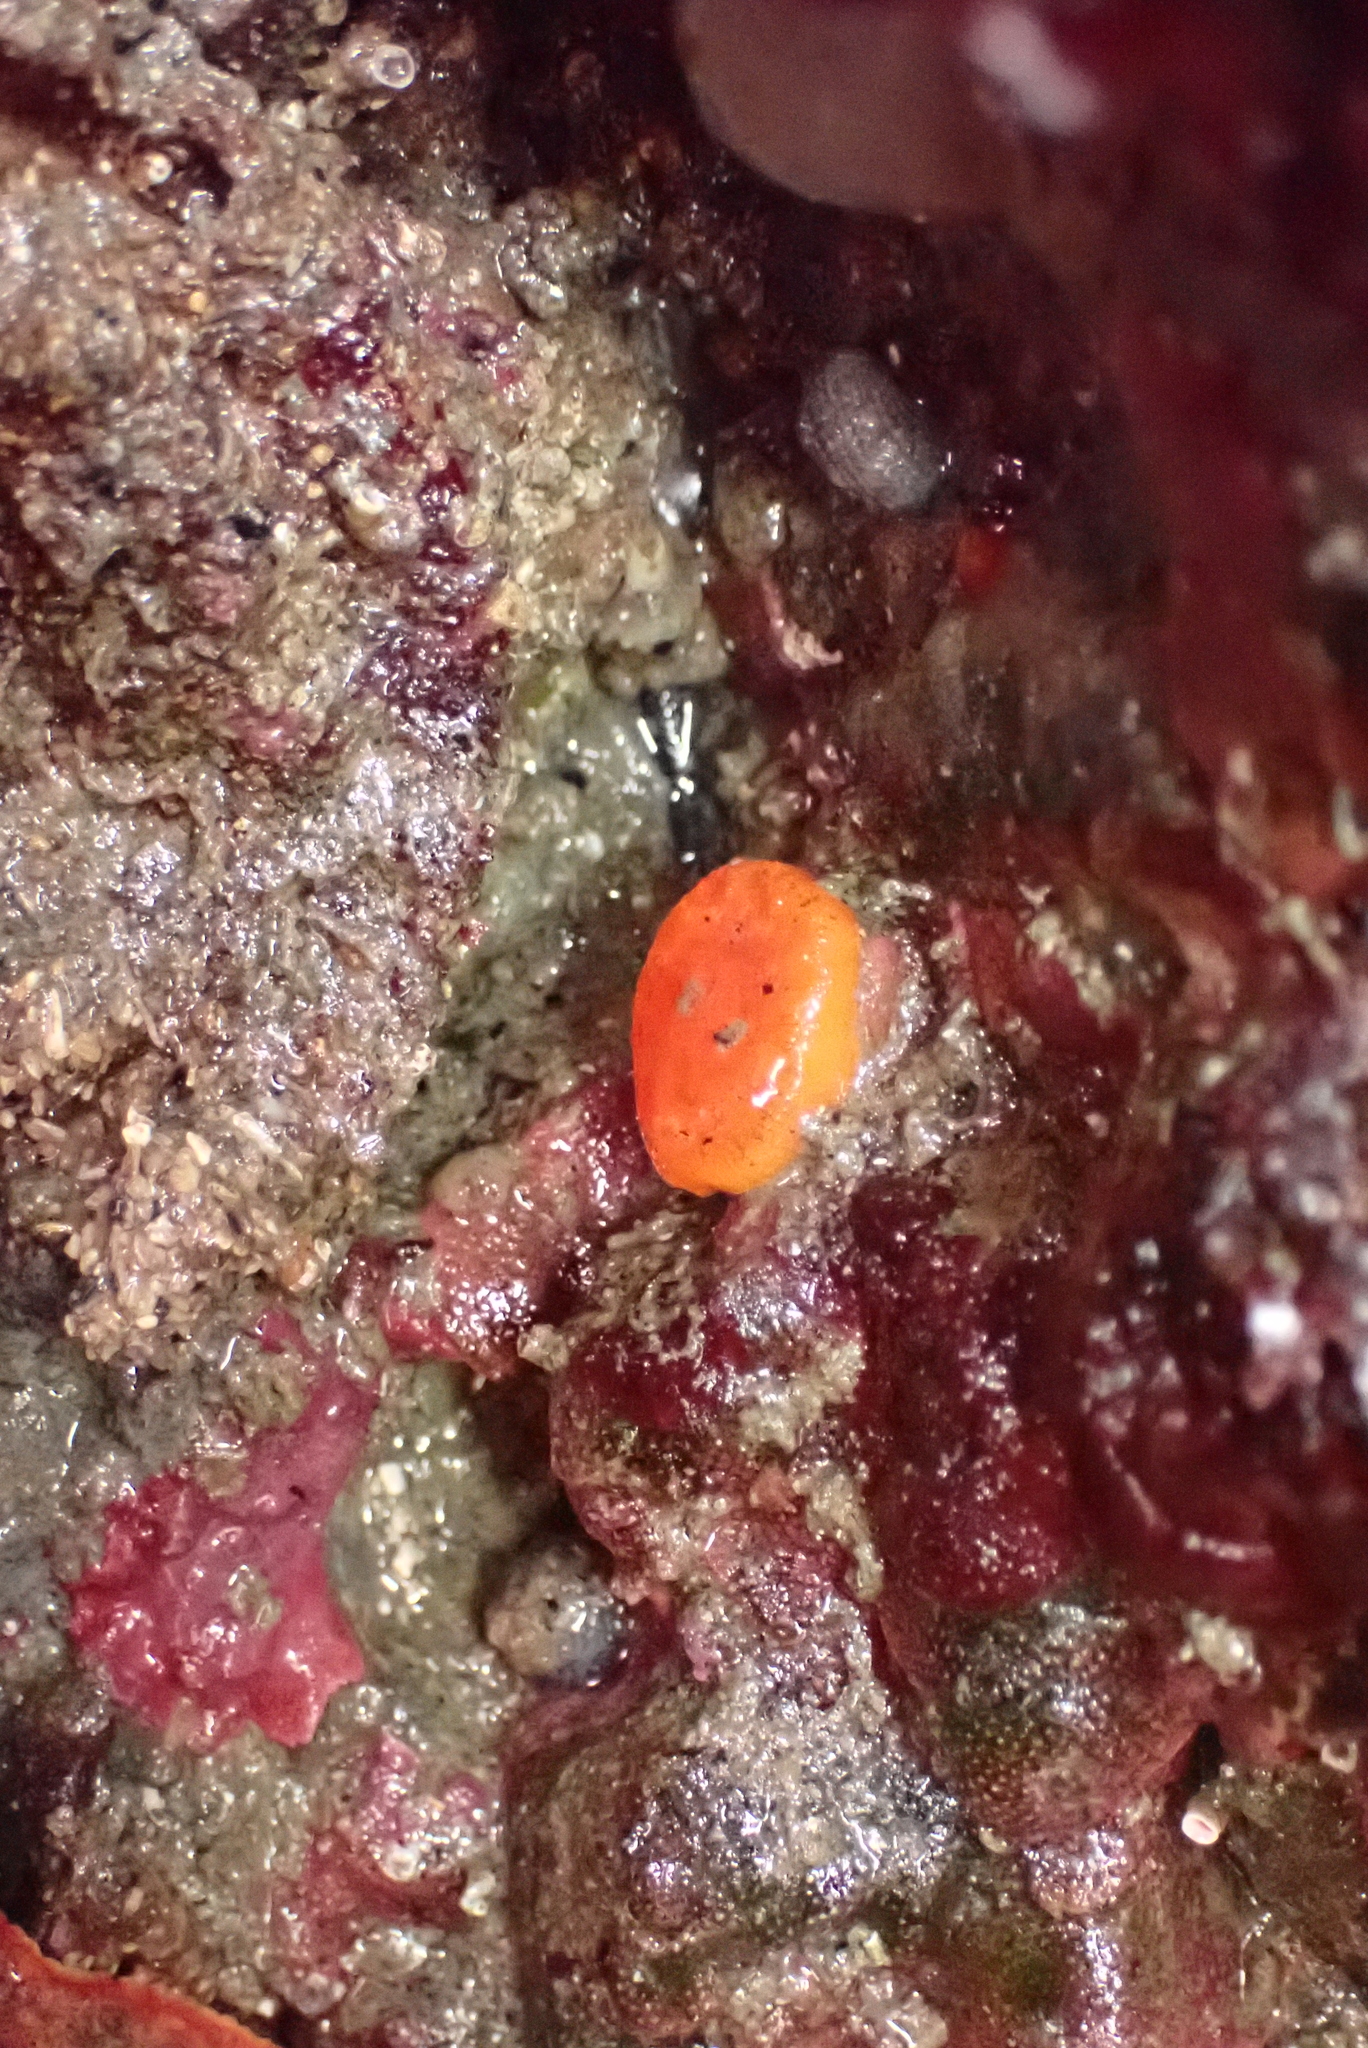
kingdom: Animalia
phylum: Cnidaria
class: Anthozoa
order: Scleractinia
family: Dendrophylliidae
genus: Balanophyllia
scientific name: Balanophyllia elegans
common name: Orange stony coral
